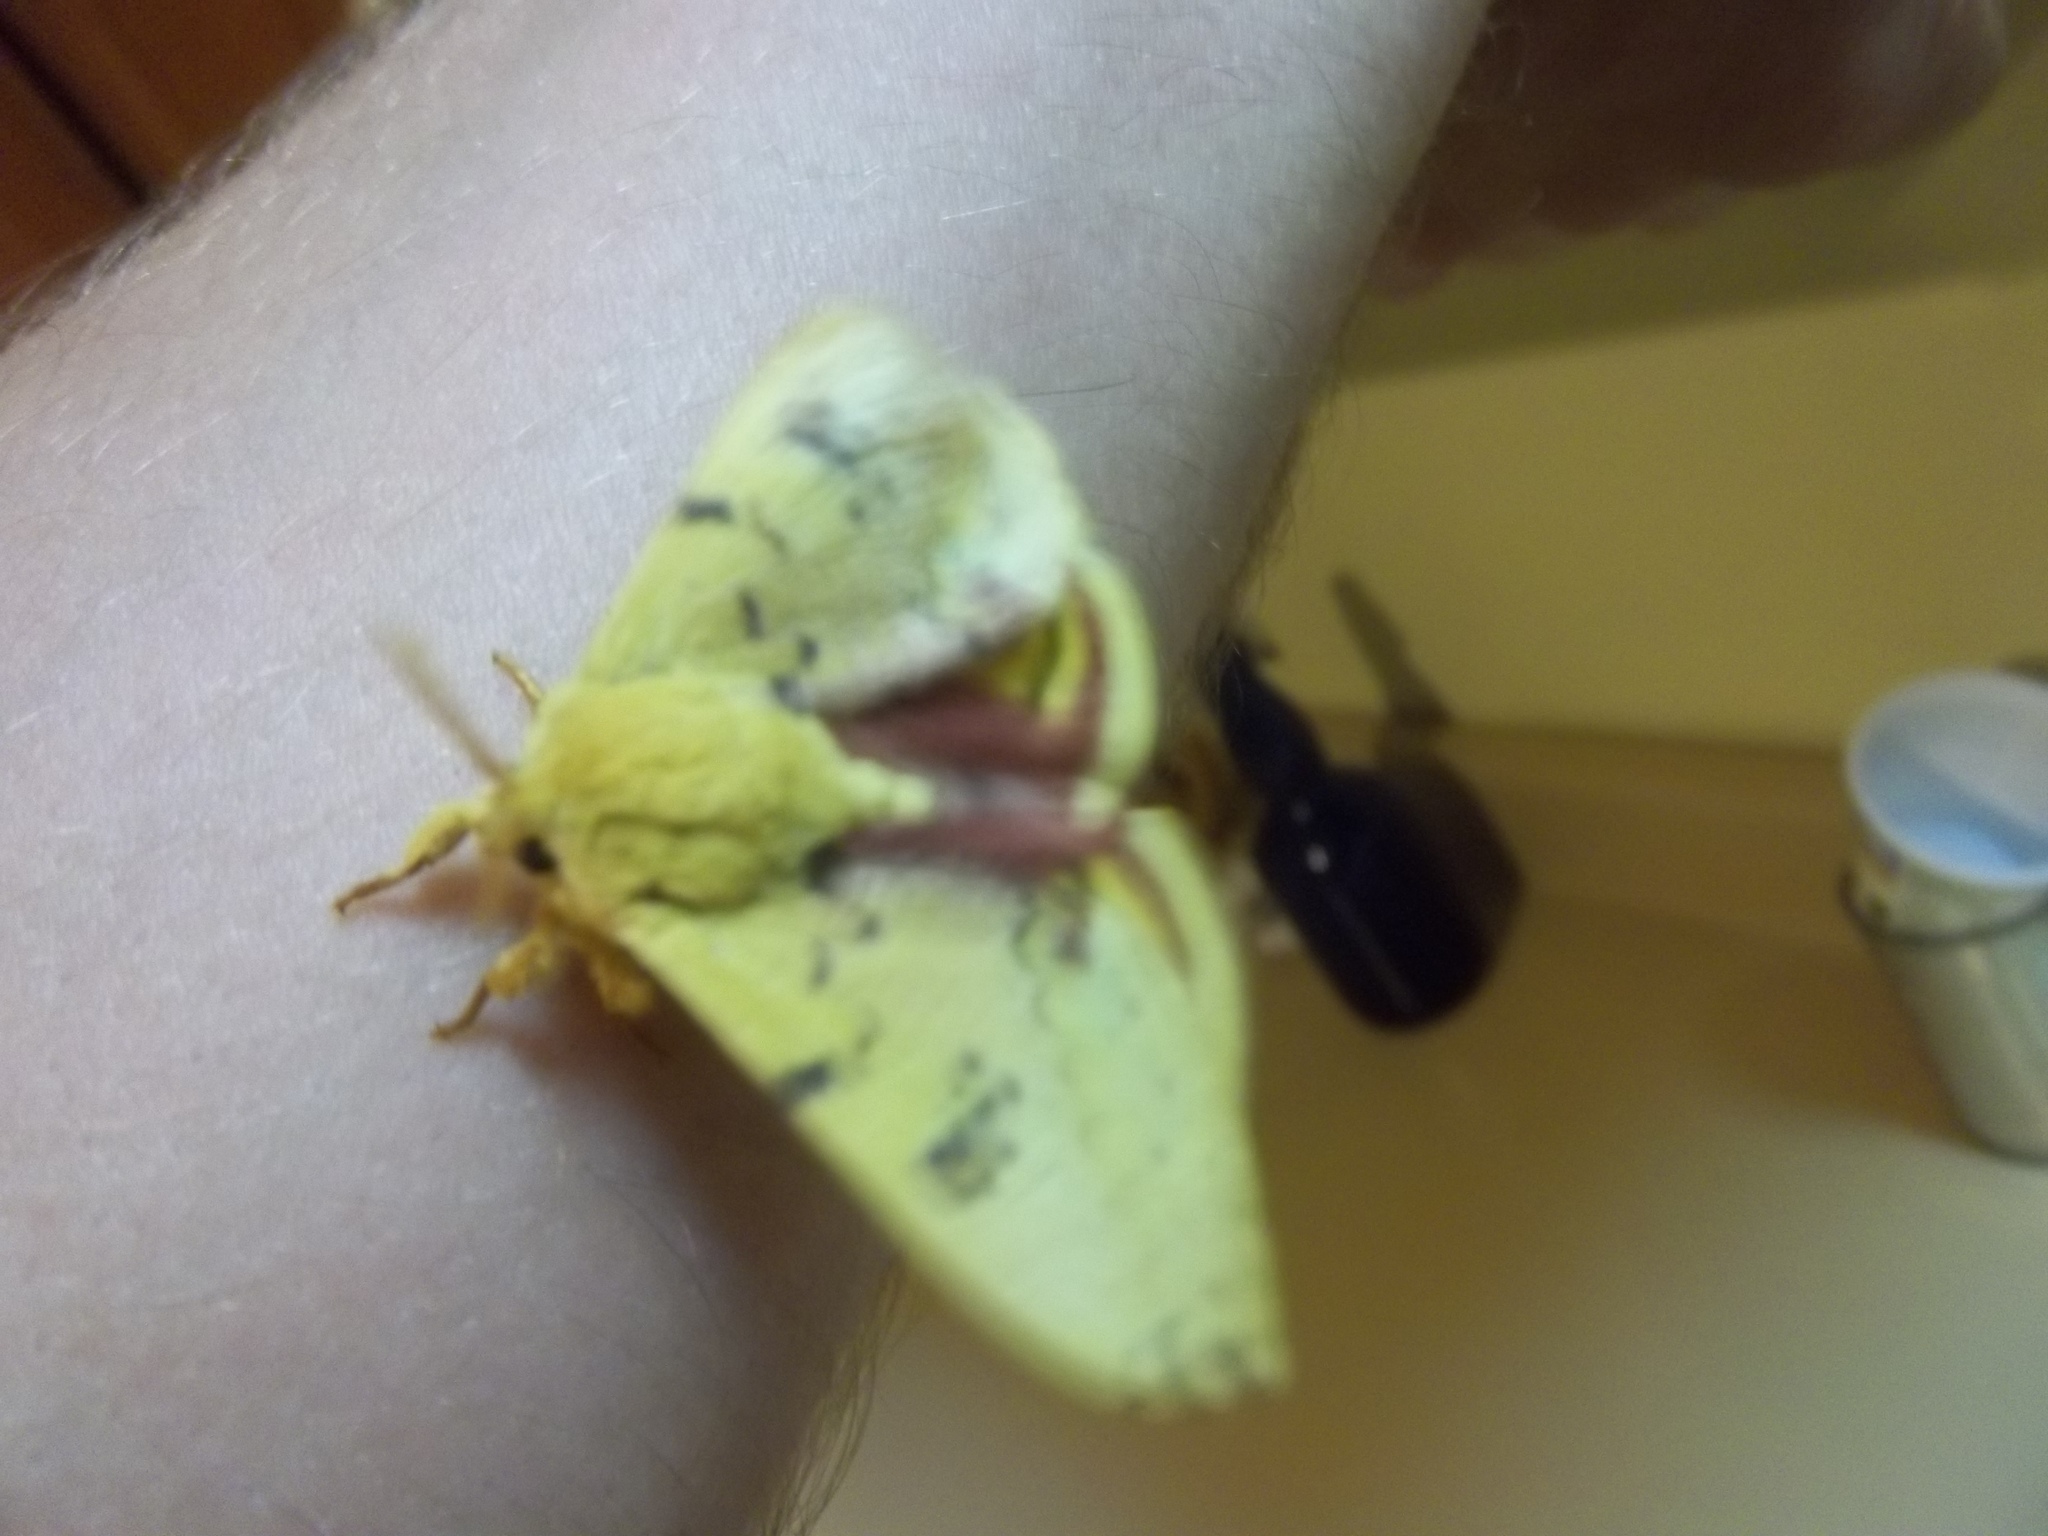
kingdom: Animalia
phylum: Arthropoda
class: Insecta
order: Lepidoptera
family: Saturniidae
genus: Automeris
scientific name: Automeris io
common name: Io moth
